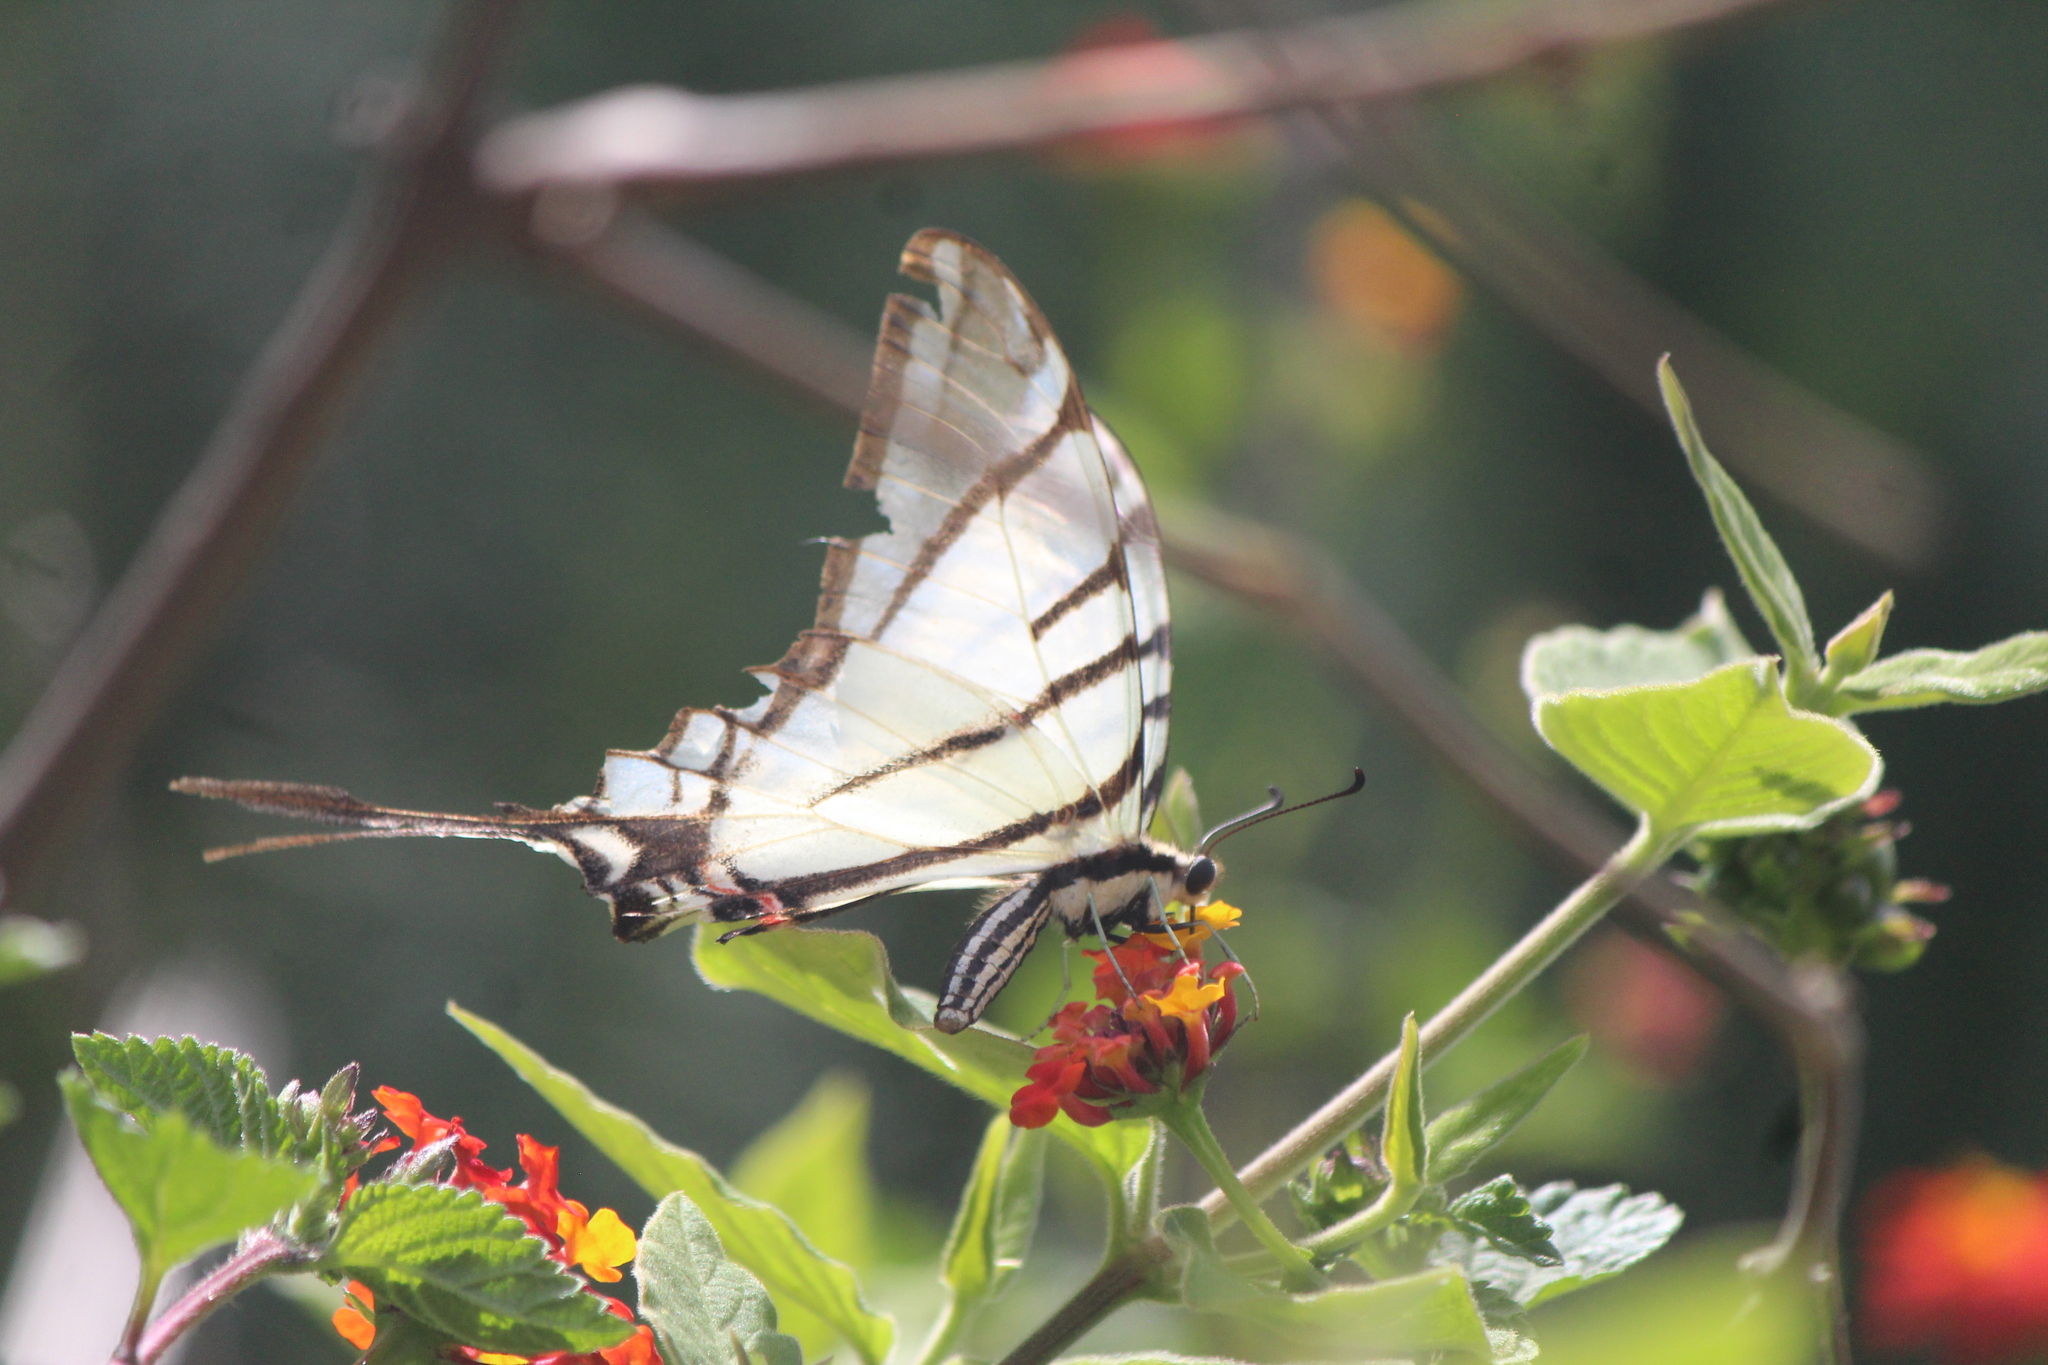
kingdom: Animalia
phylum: Arthropoda
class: Insecta
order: Lepidoptera
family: Papilionidae
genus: Protographium
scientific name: Protographium epidaus
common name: Mexican kite swallowtail
